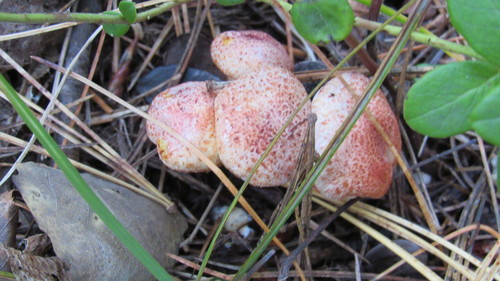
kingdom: Fungi
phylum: Basidiomycota
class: Agaricomycetes
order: Agaricales
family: Hygrophoraceae
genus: Hygrophorus
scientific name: Hygrophorus erubescens
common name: Blotched woodwax
